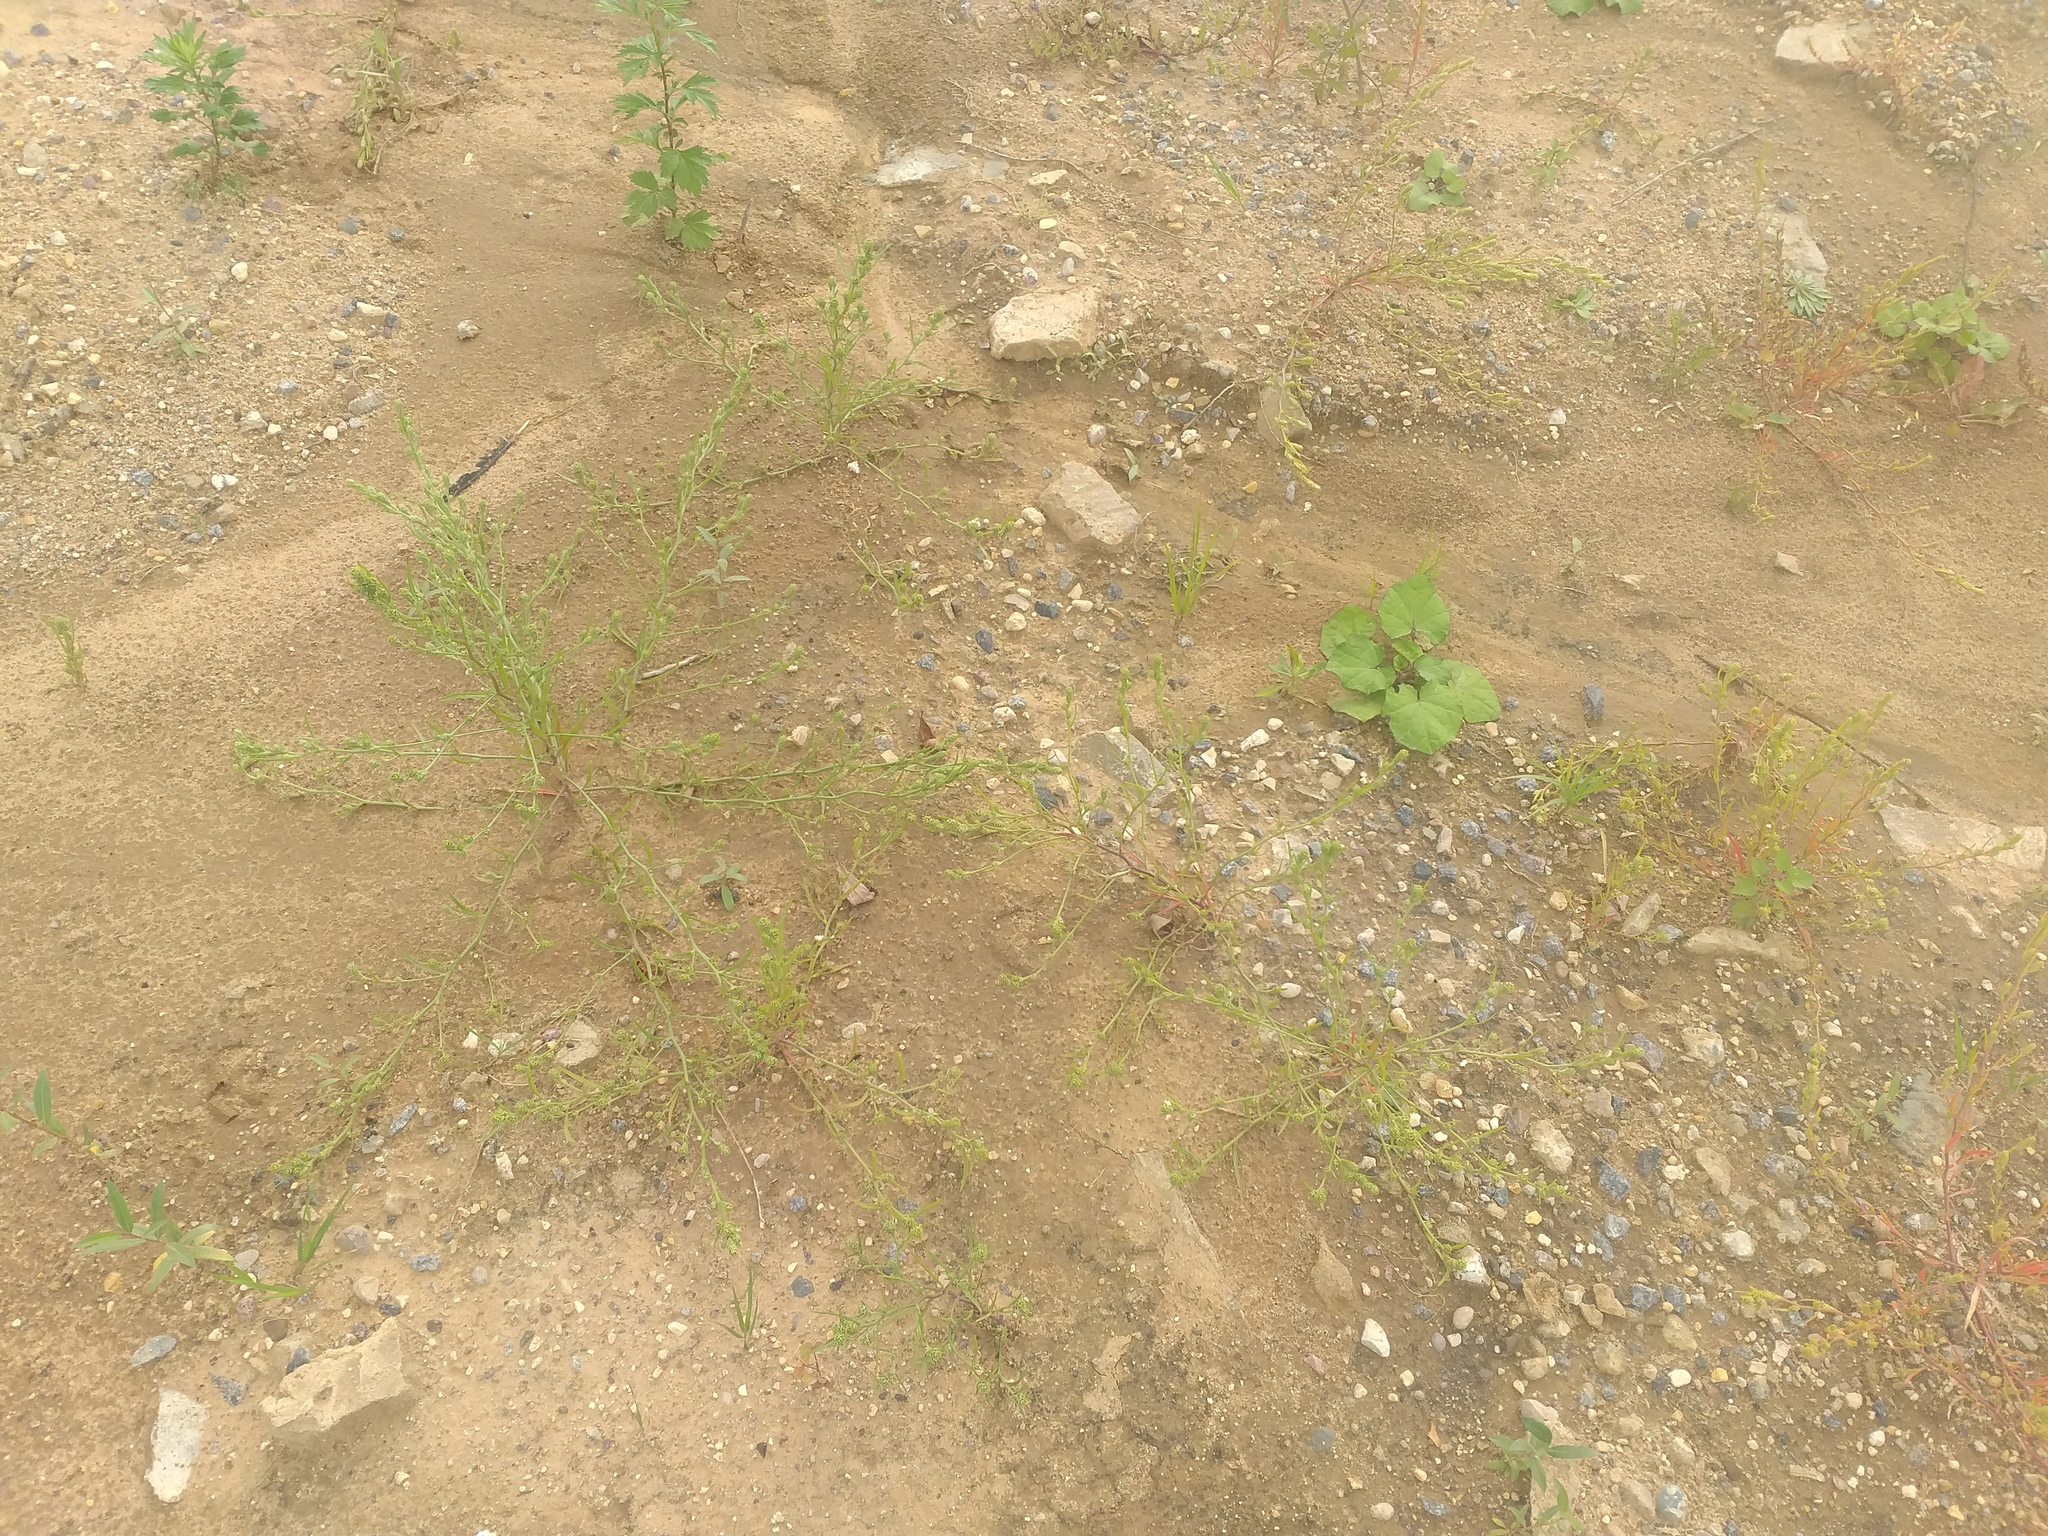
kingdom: Plantae
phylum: Tracheophyta
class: Magnoliopsida
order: Caryophyllales
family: Amaranthaceae
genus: Corispermum
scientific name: Corispermum hyssopifolium
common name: Bugseed
